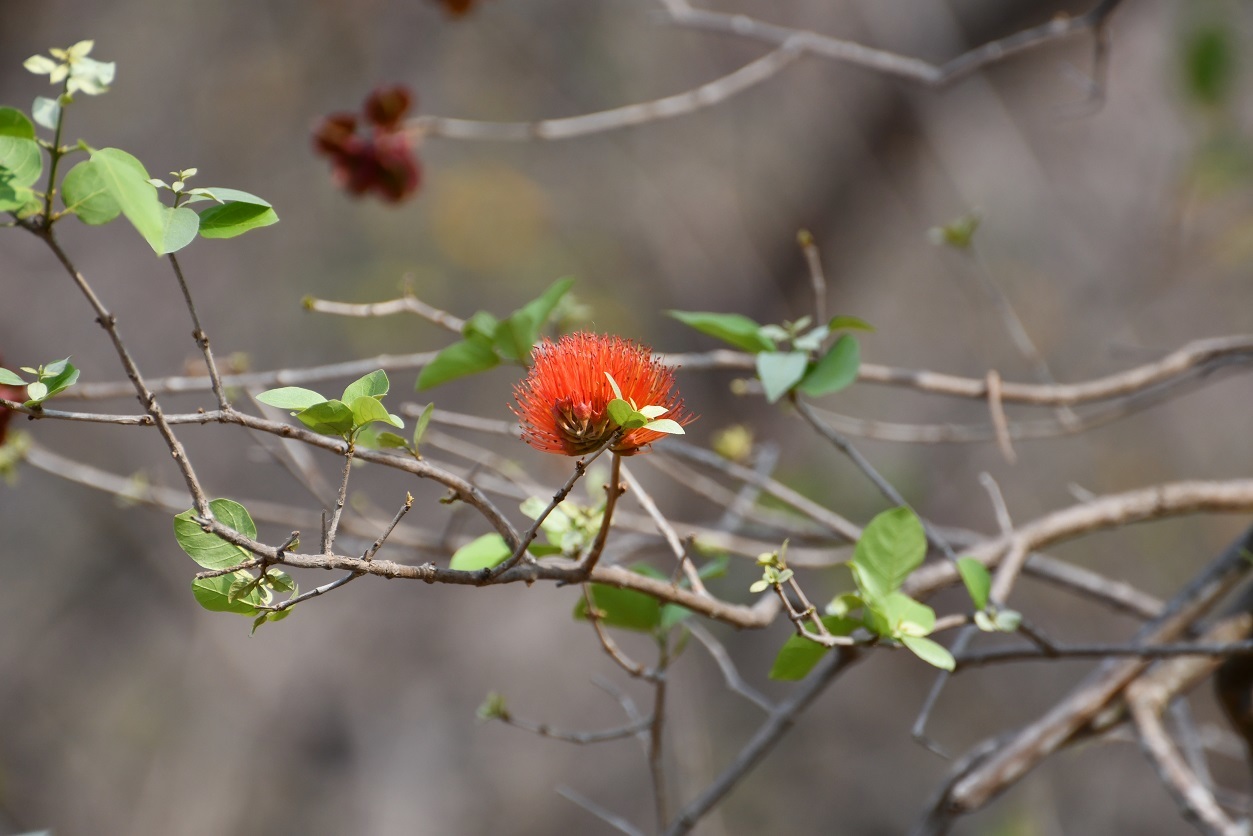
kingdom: Plantae
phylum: Tracheophyta
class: Magnoliopsida
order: Myrtales
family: Combretaceae
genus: Combretum
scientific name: Combretum farinosum
